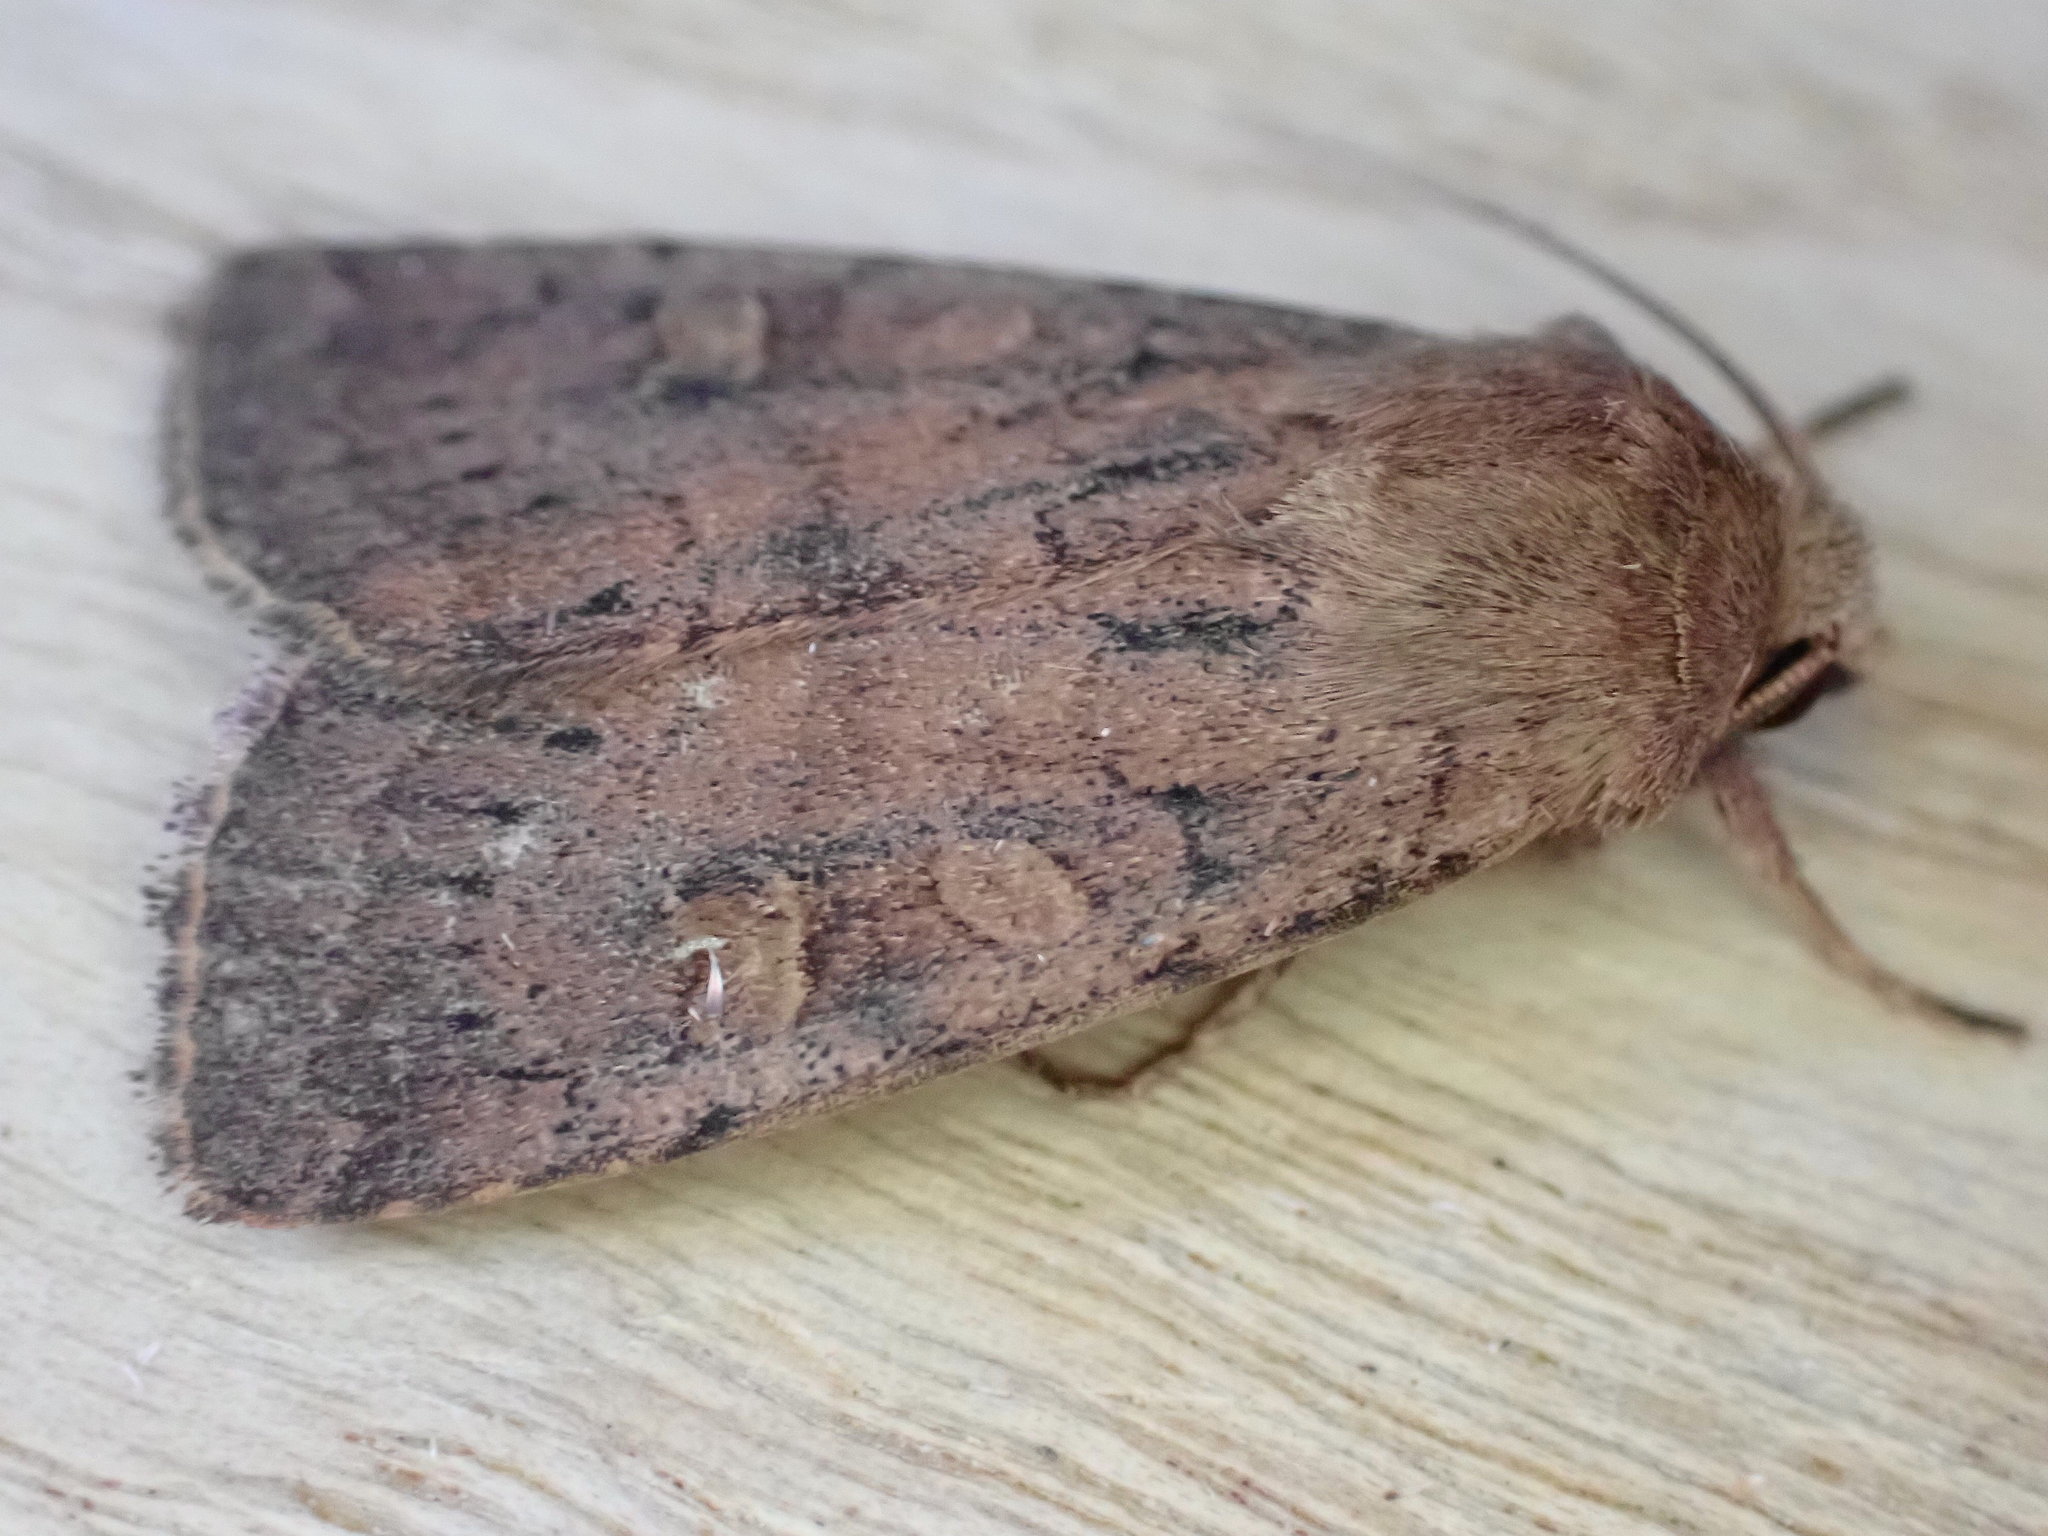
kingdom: Animalia
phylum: Arthropoda
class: Insecta
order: Lepidoptera
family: Noctuidae
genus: Xestia
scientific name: Xestia xanthographa
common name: Square-spot rustic
